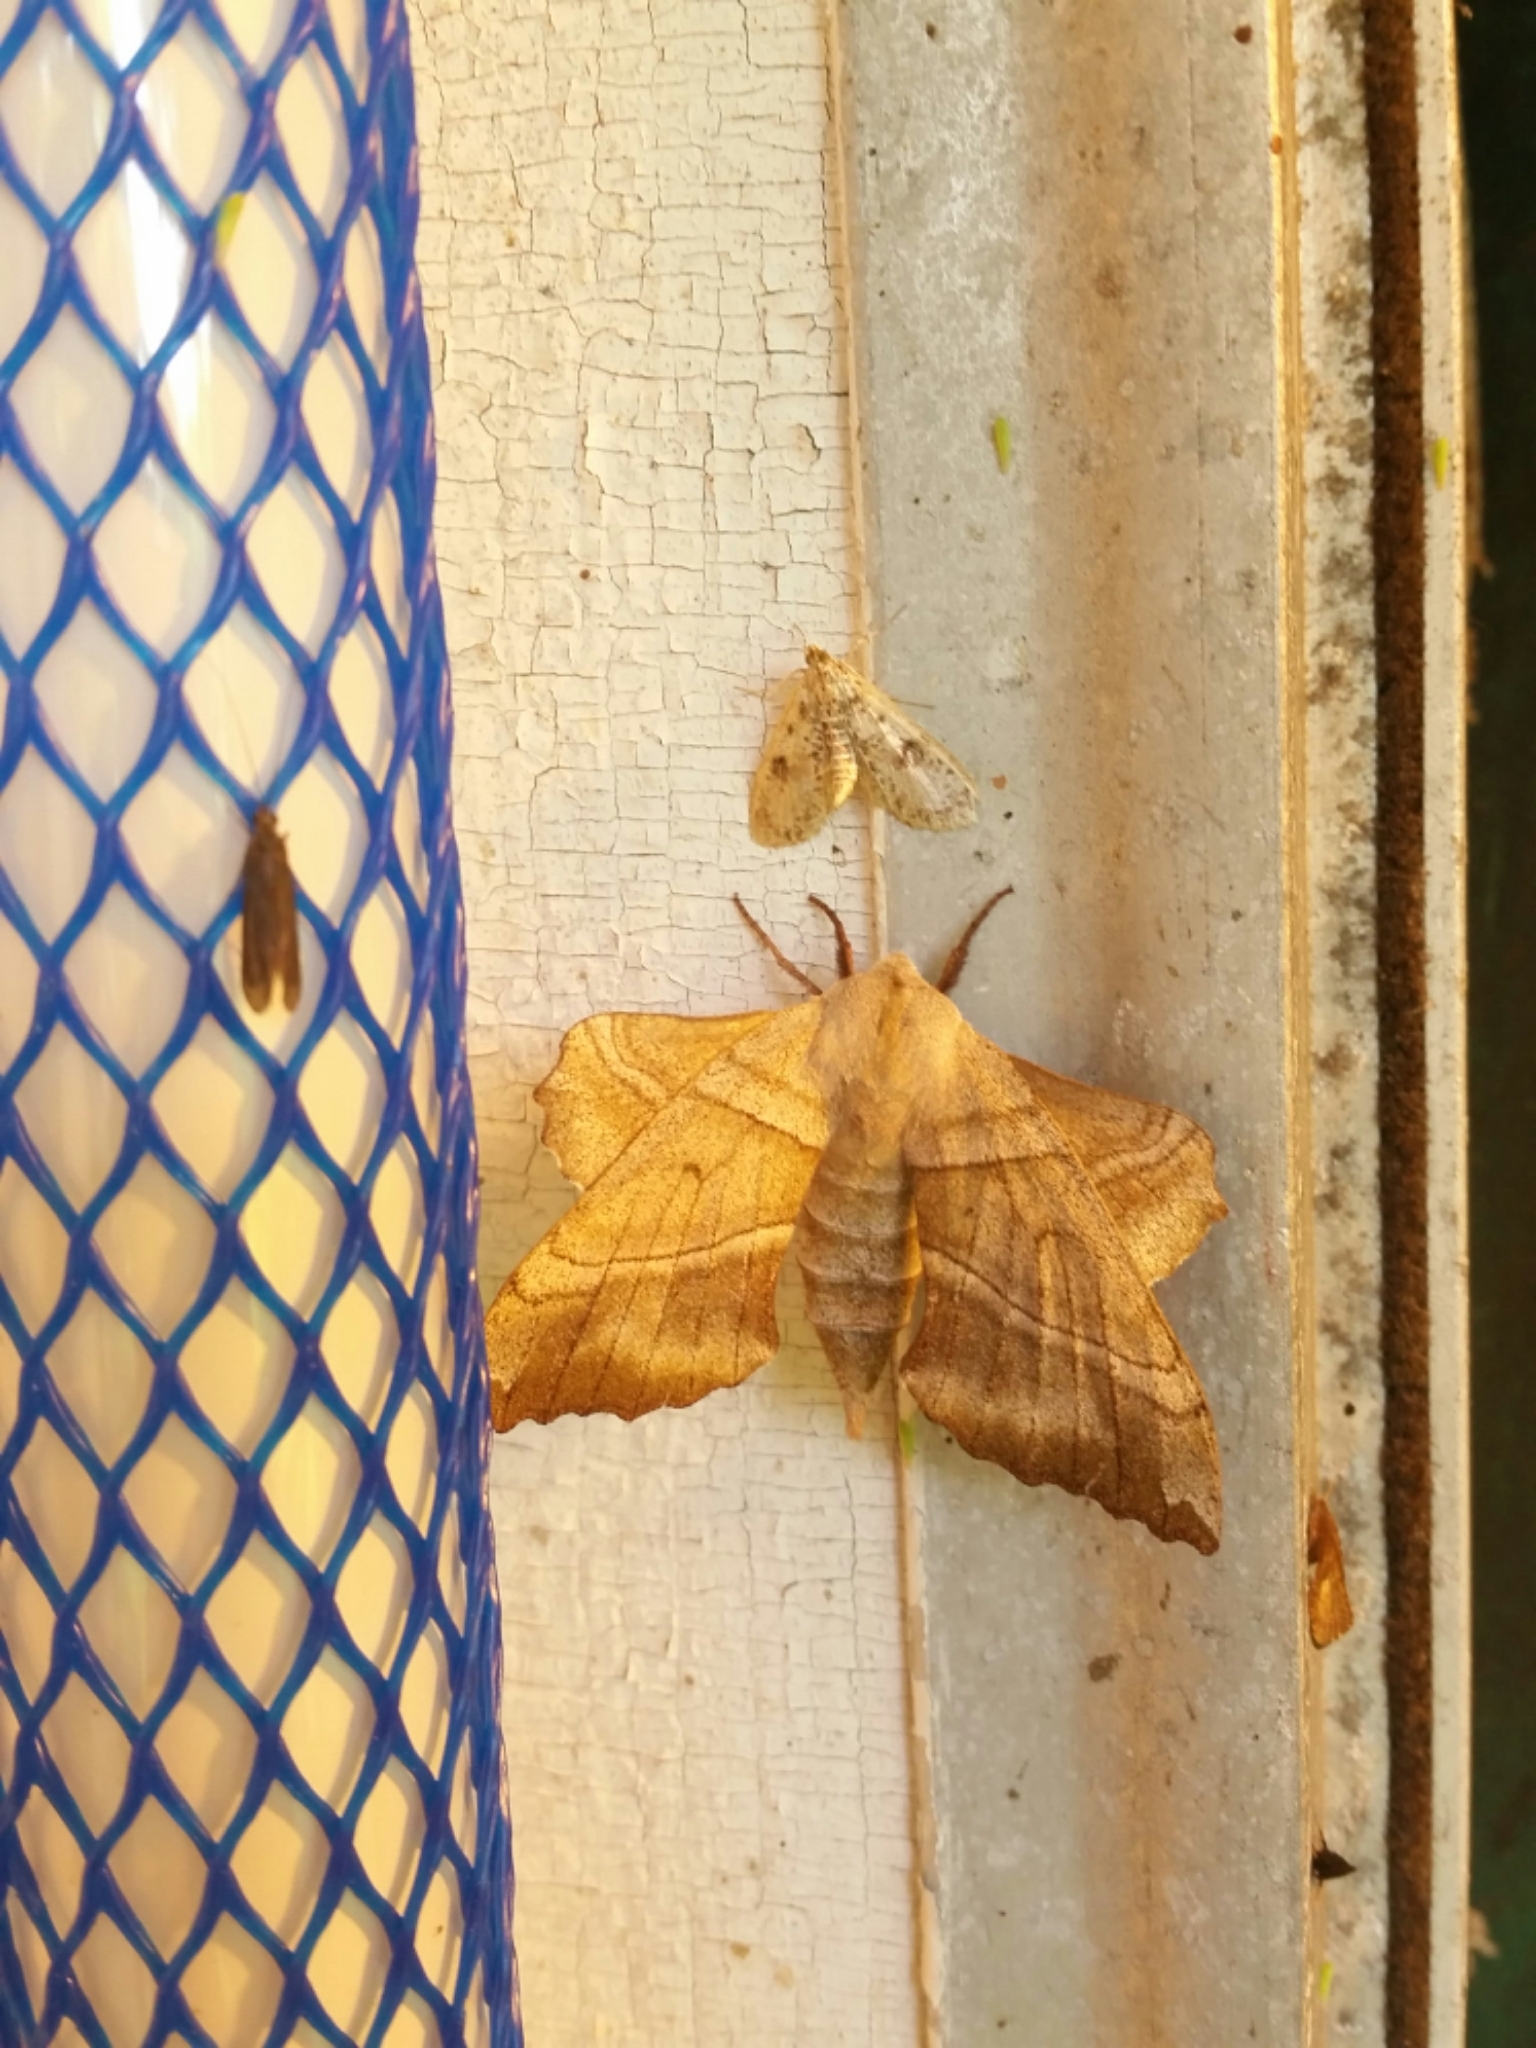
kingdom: Animalia
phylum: Arthropoda
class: Insecta
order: Lepidoptera
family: Sphingidae
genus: Amorpha
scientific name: Amorpha juglandis
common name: Walnut sphinx
